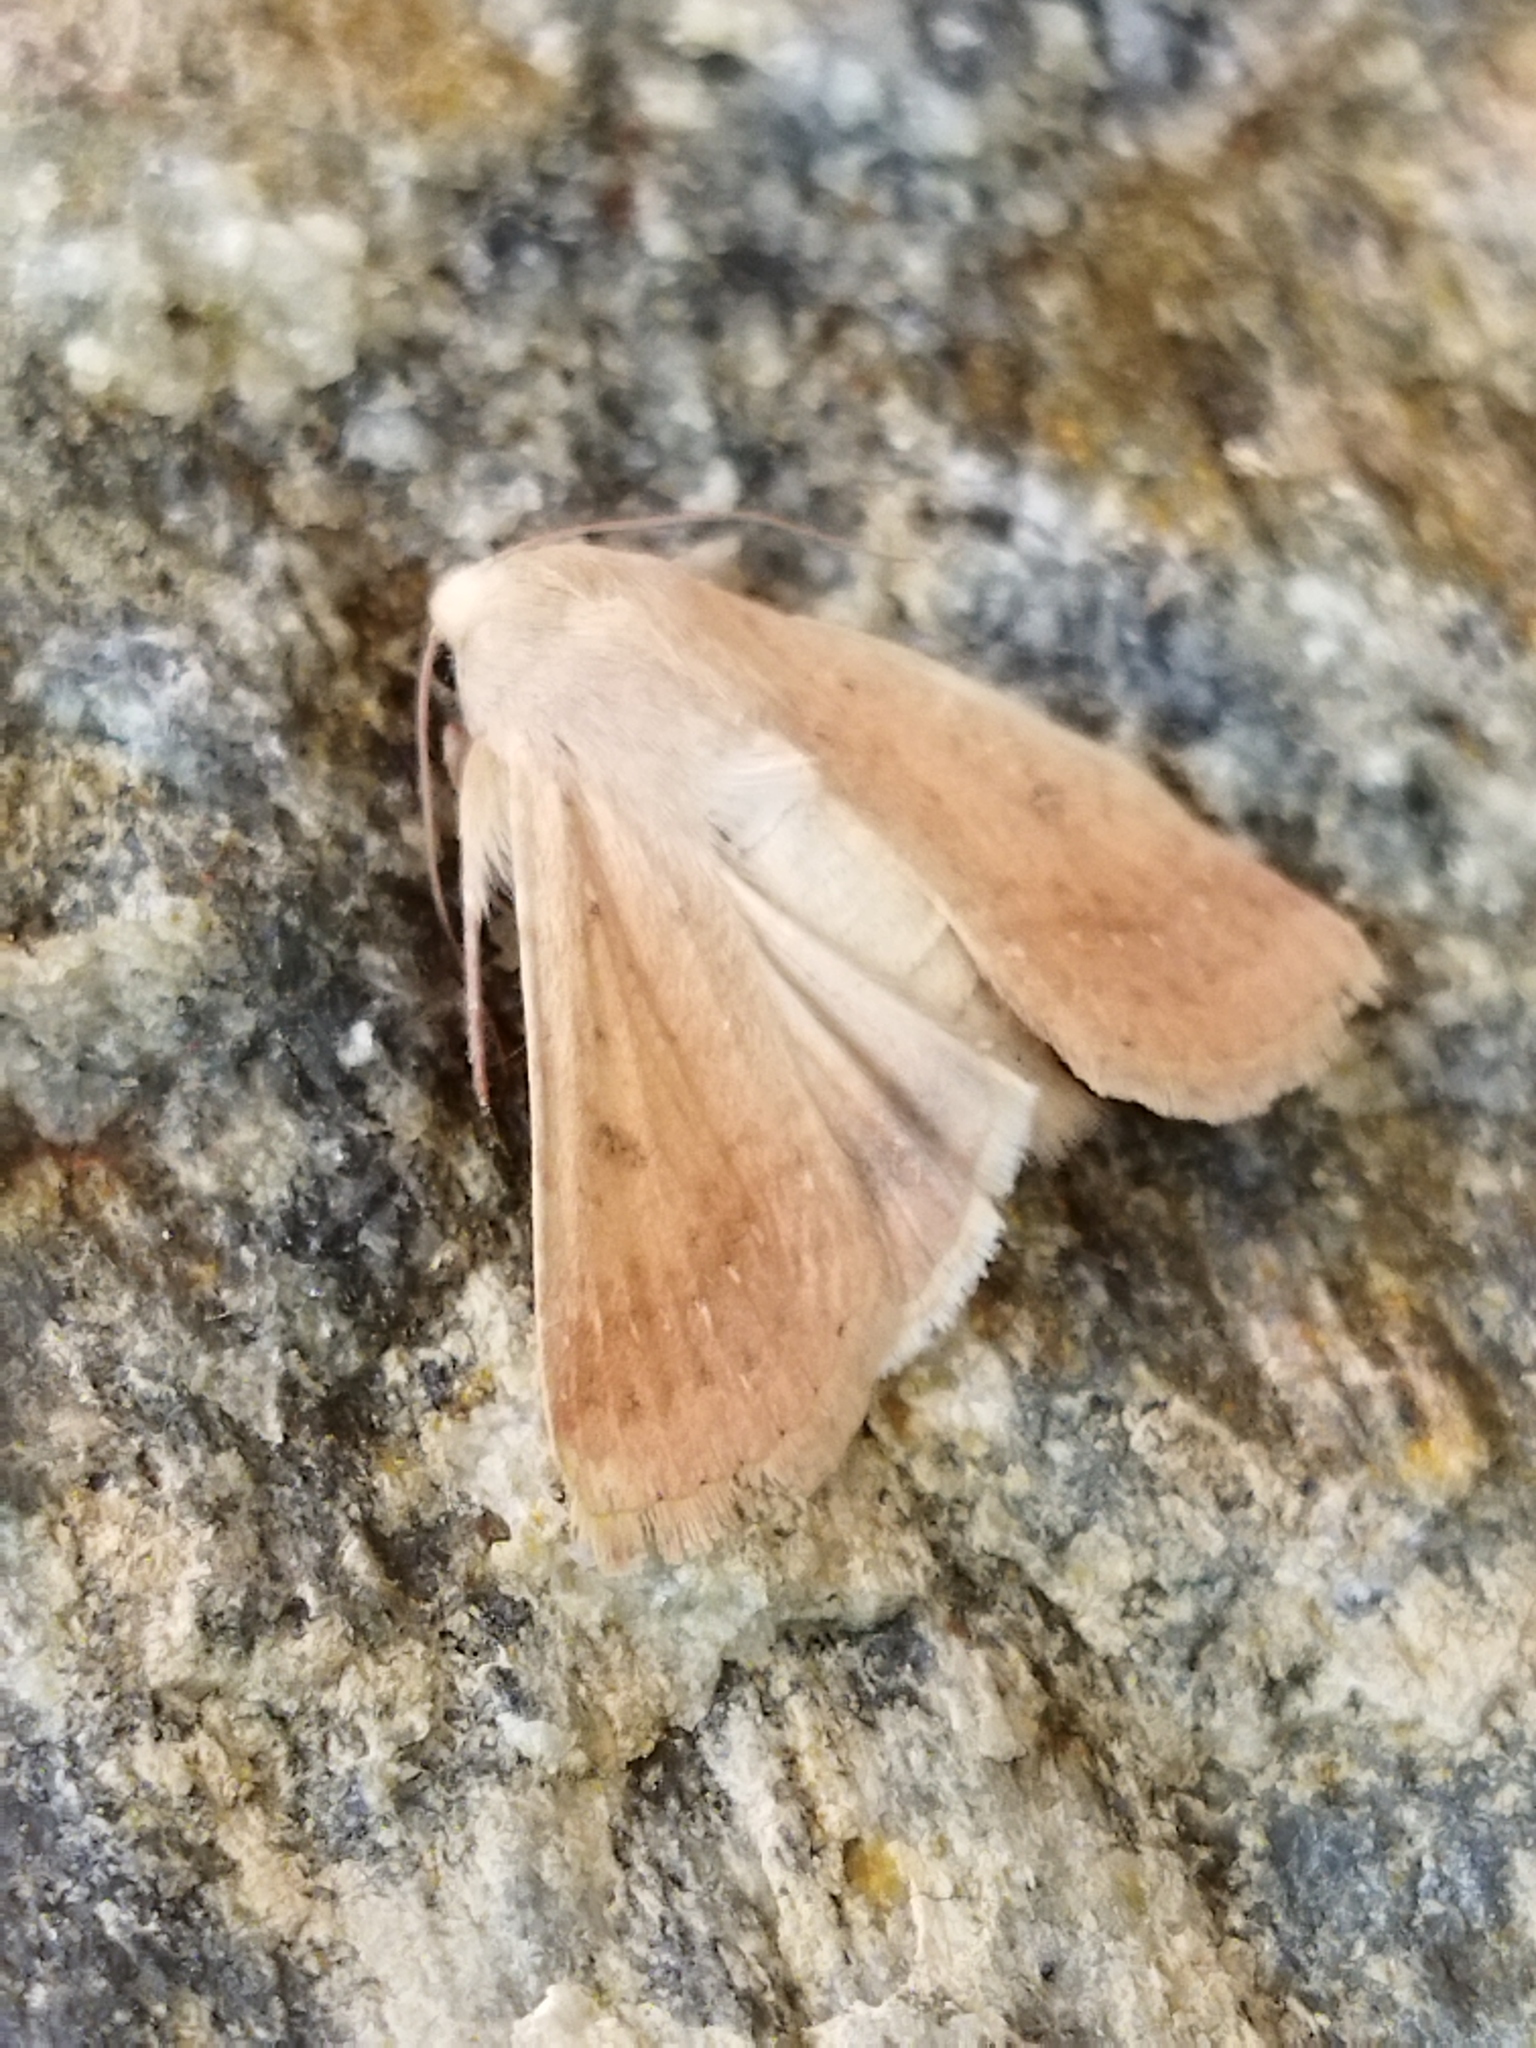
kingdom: Animalia
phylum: Arthropoda
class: Insecta
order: Lepidoptera
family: Noctuidae
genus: Helicoverpa
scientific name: Helicoverpa armigera
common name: Cotton bollworm
